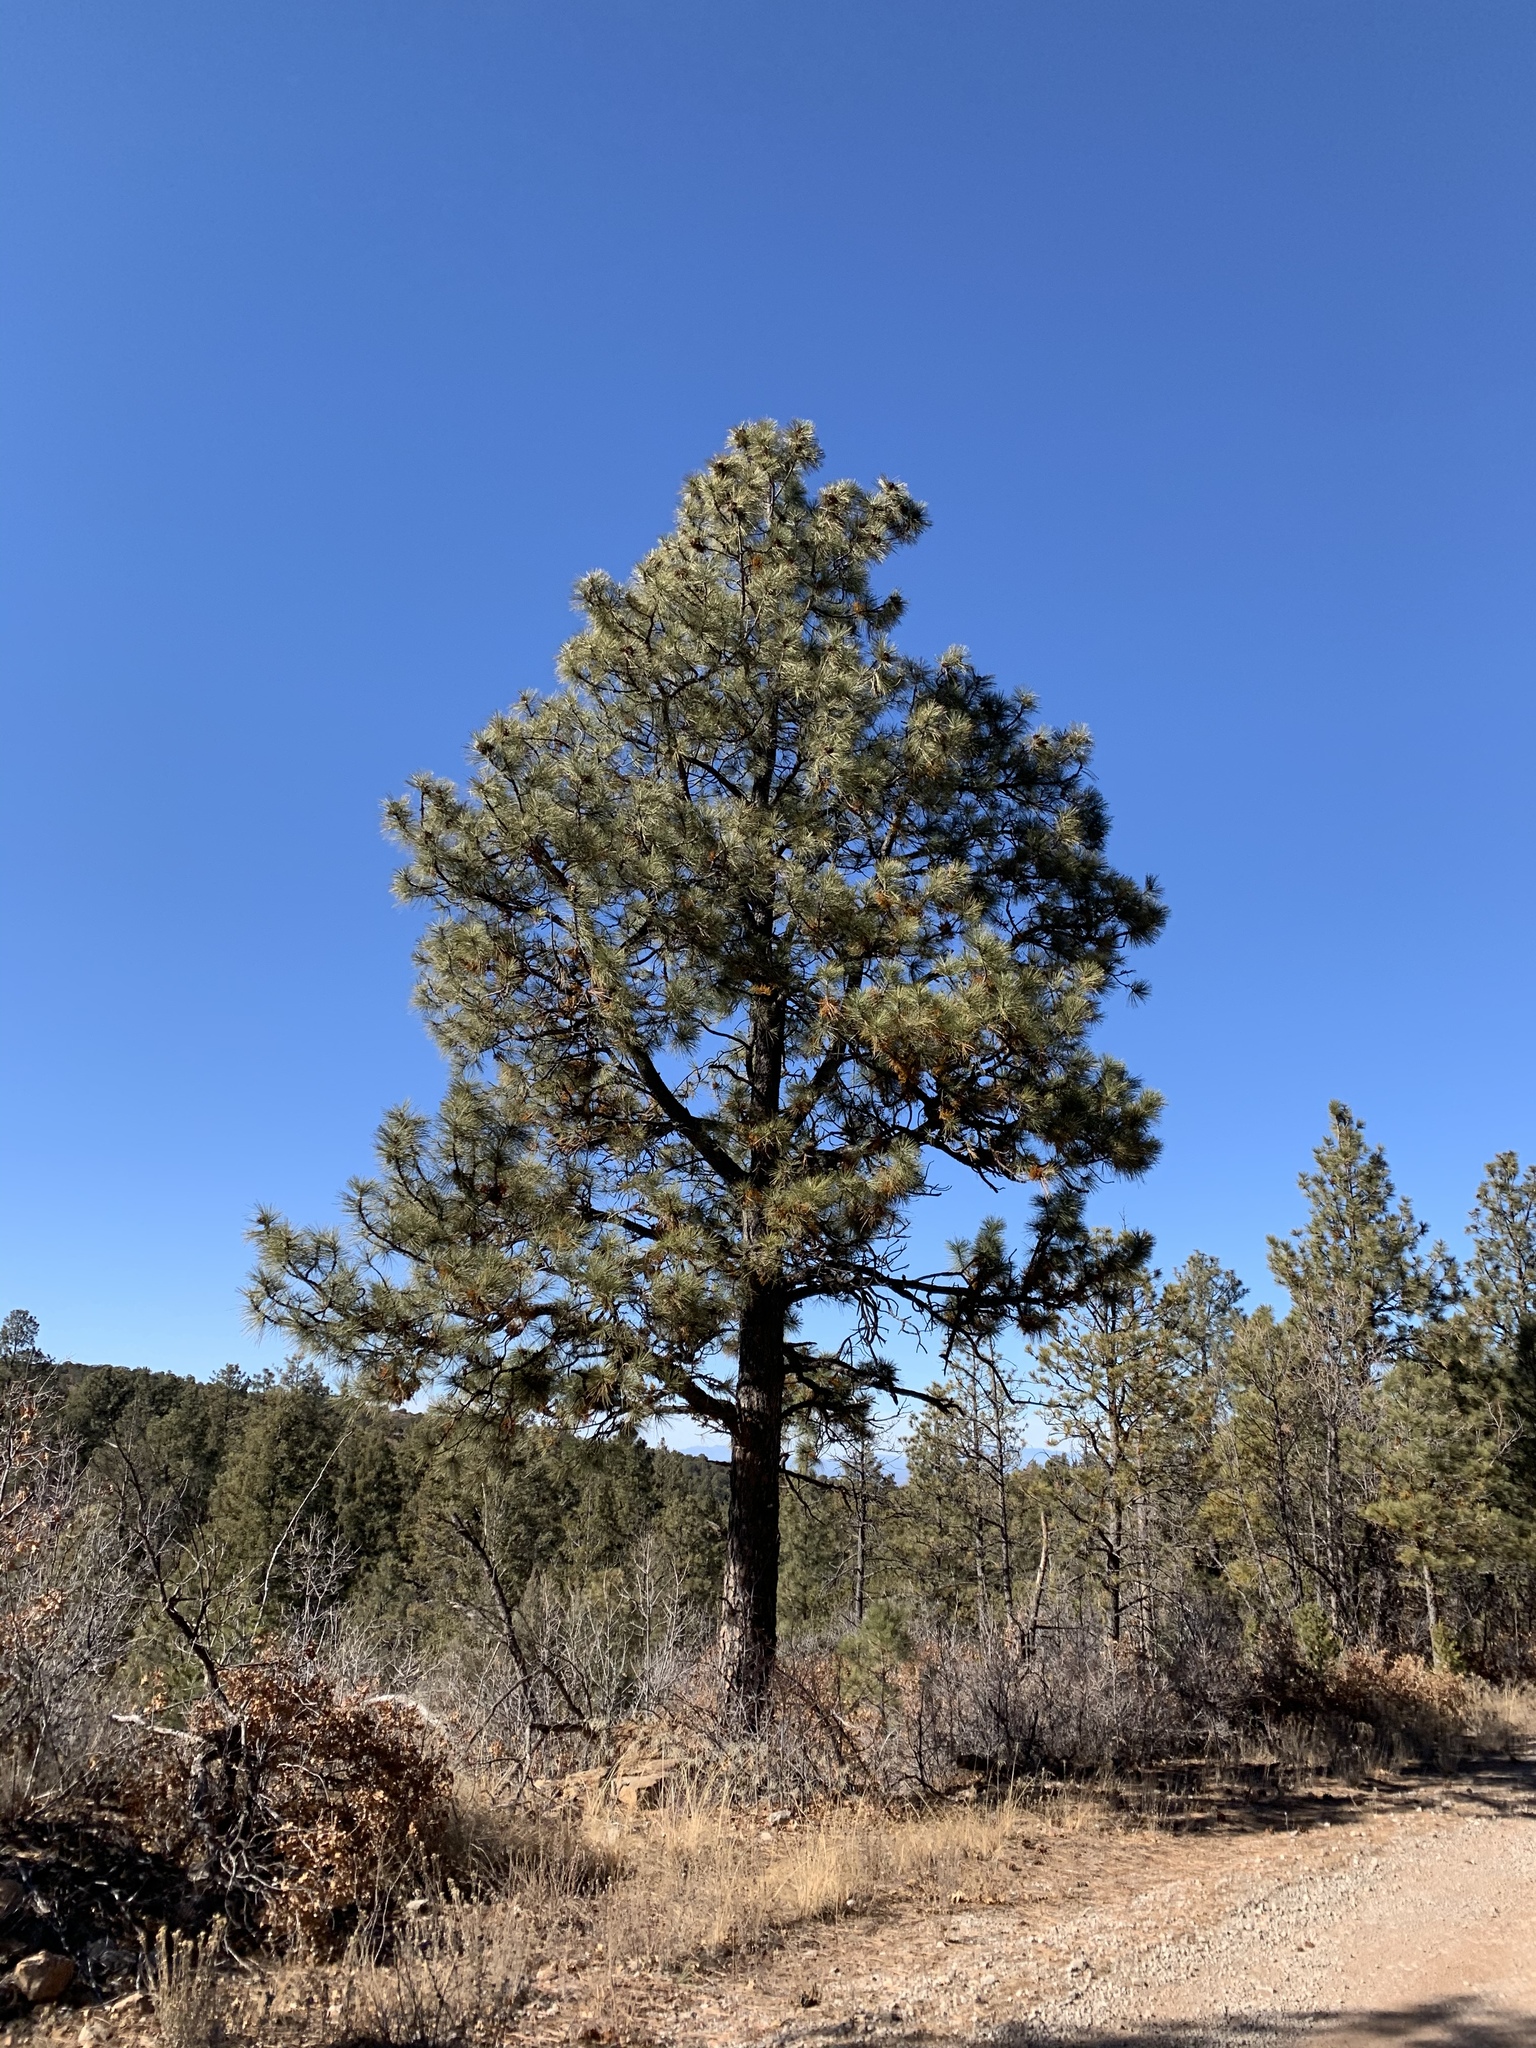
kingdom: Plantae
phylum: Tracheophyta
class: Pinopsida
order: Pinales
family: Pinaceae
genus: Pinus
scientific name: Pinus ponderosa
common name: Western yellow-pine
